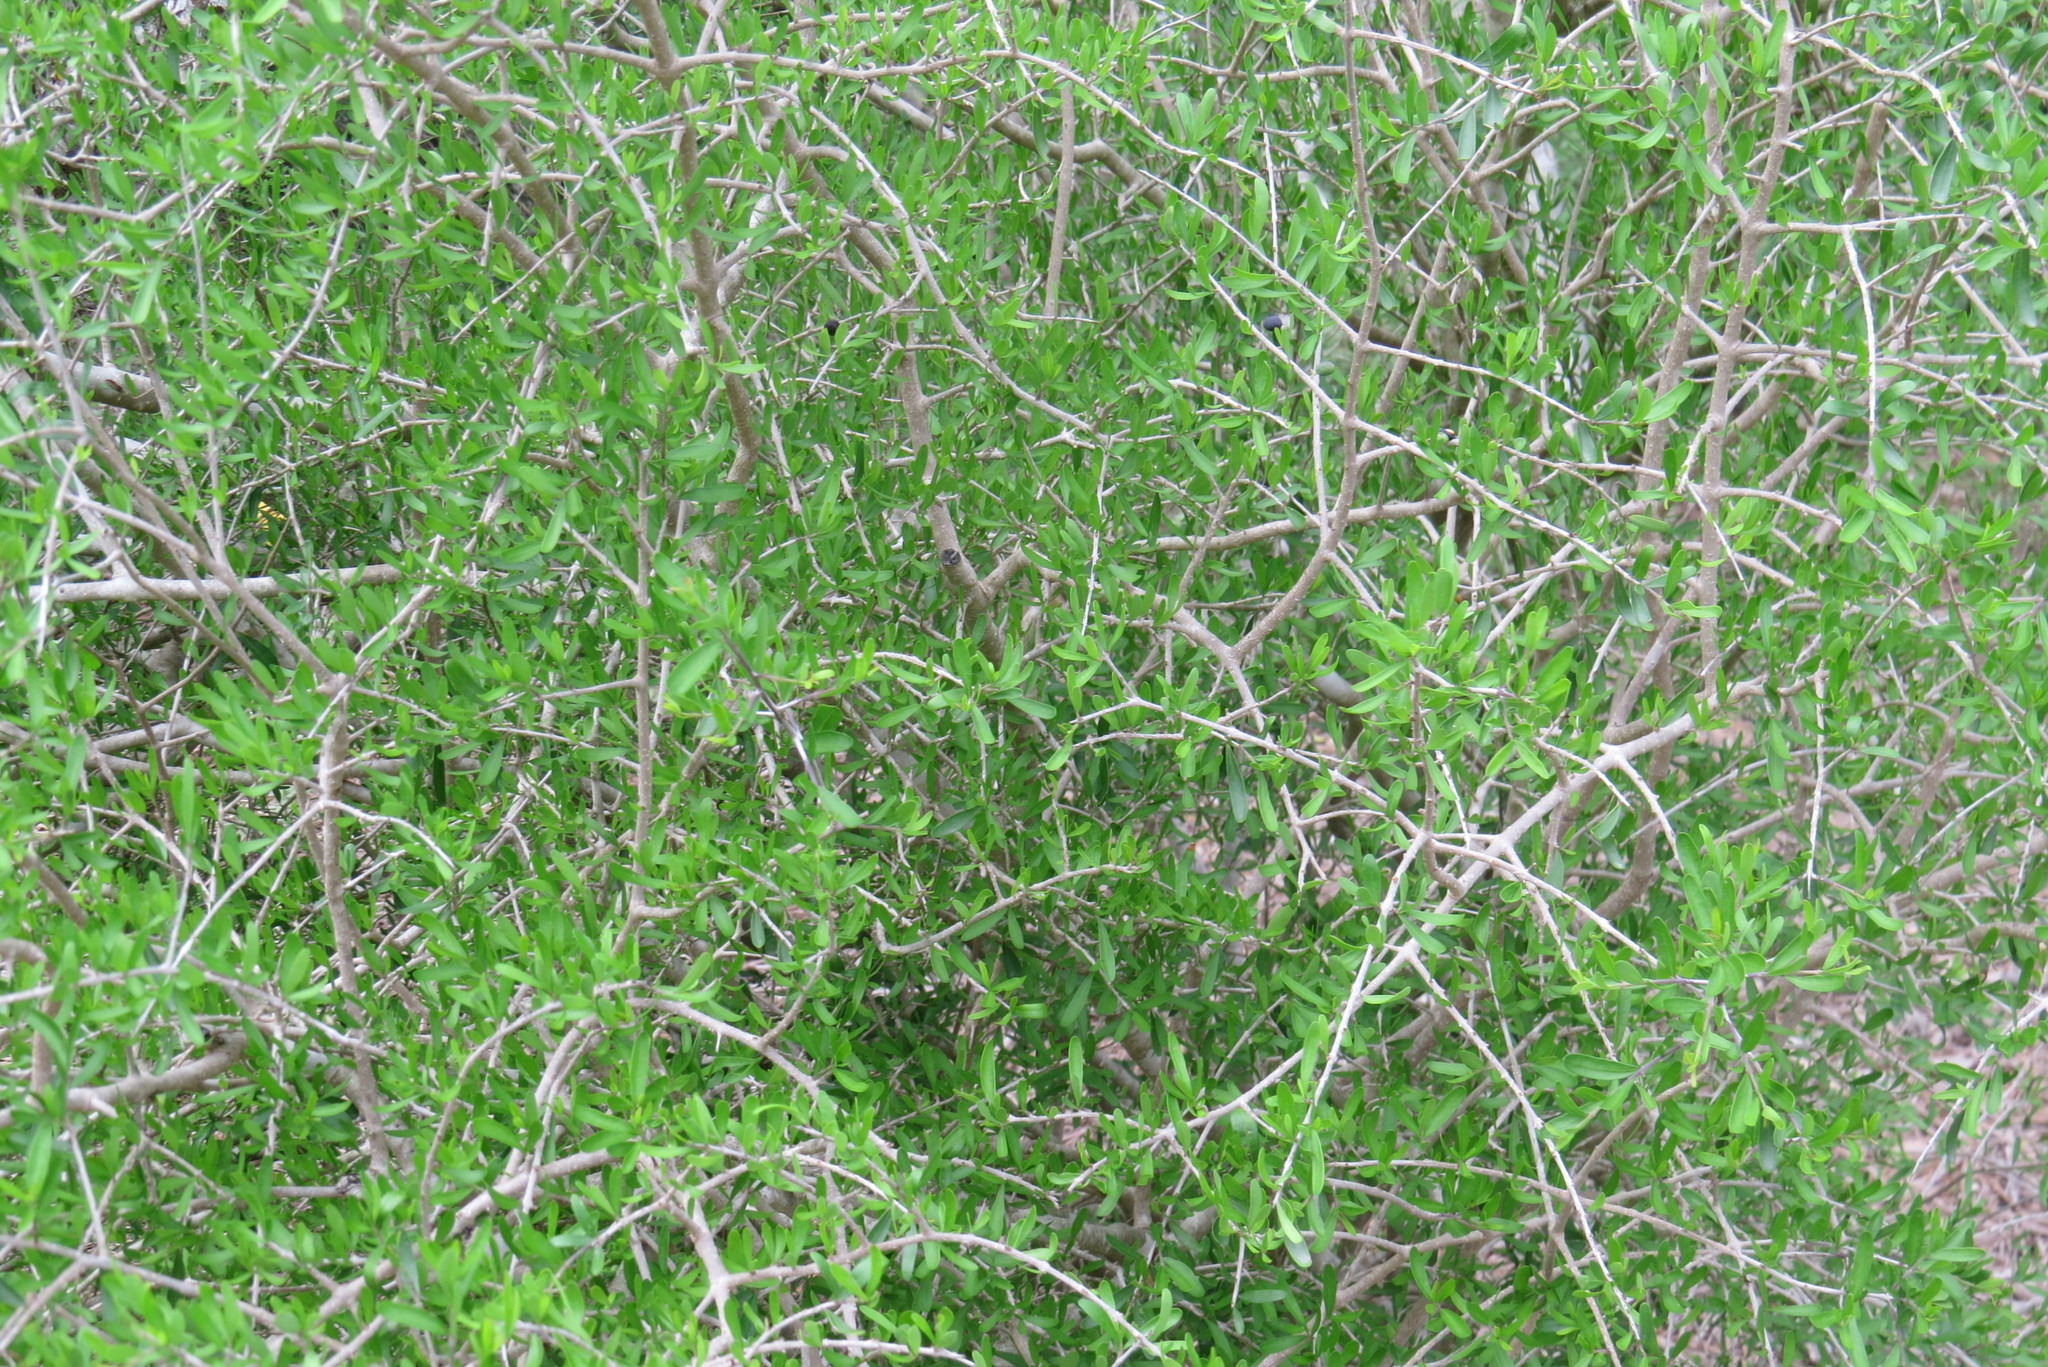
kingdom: Plantae
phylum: Tracheophyta
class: Magnoliopsida
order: Lamiales
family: Oleaceae
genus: Forestiera
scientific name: Forestiera angustifolia
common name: Elbowbush
